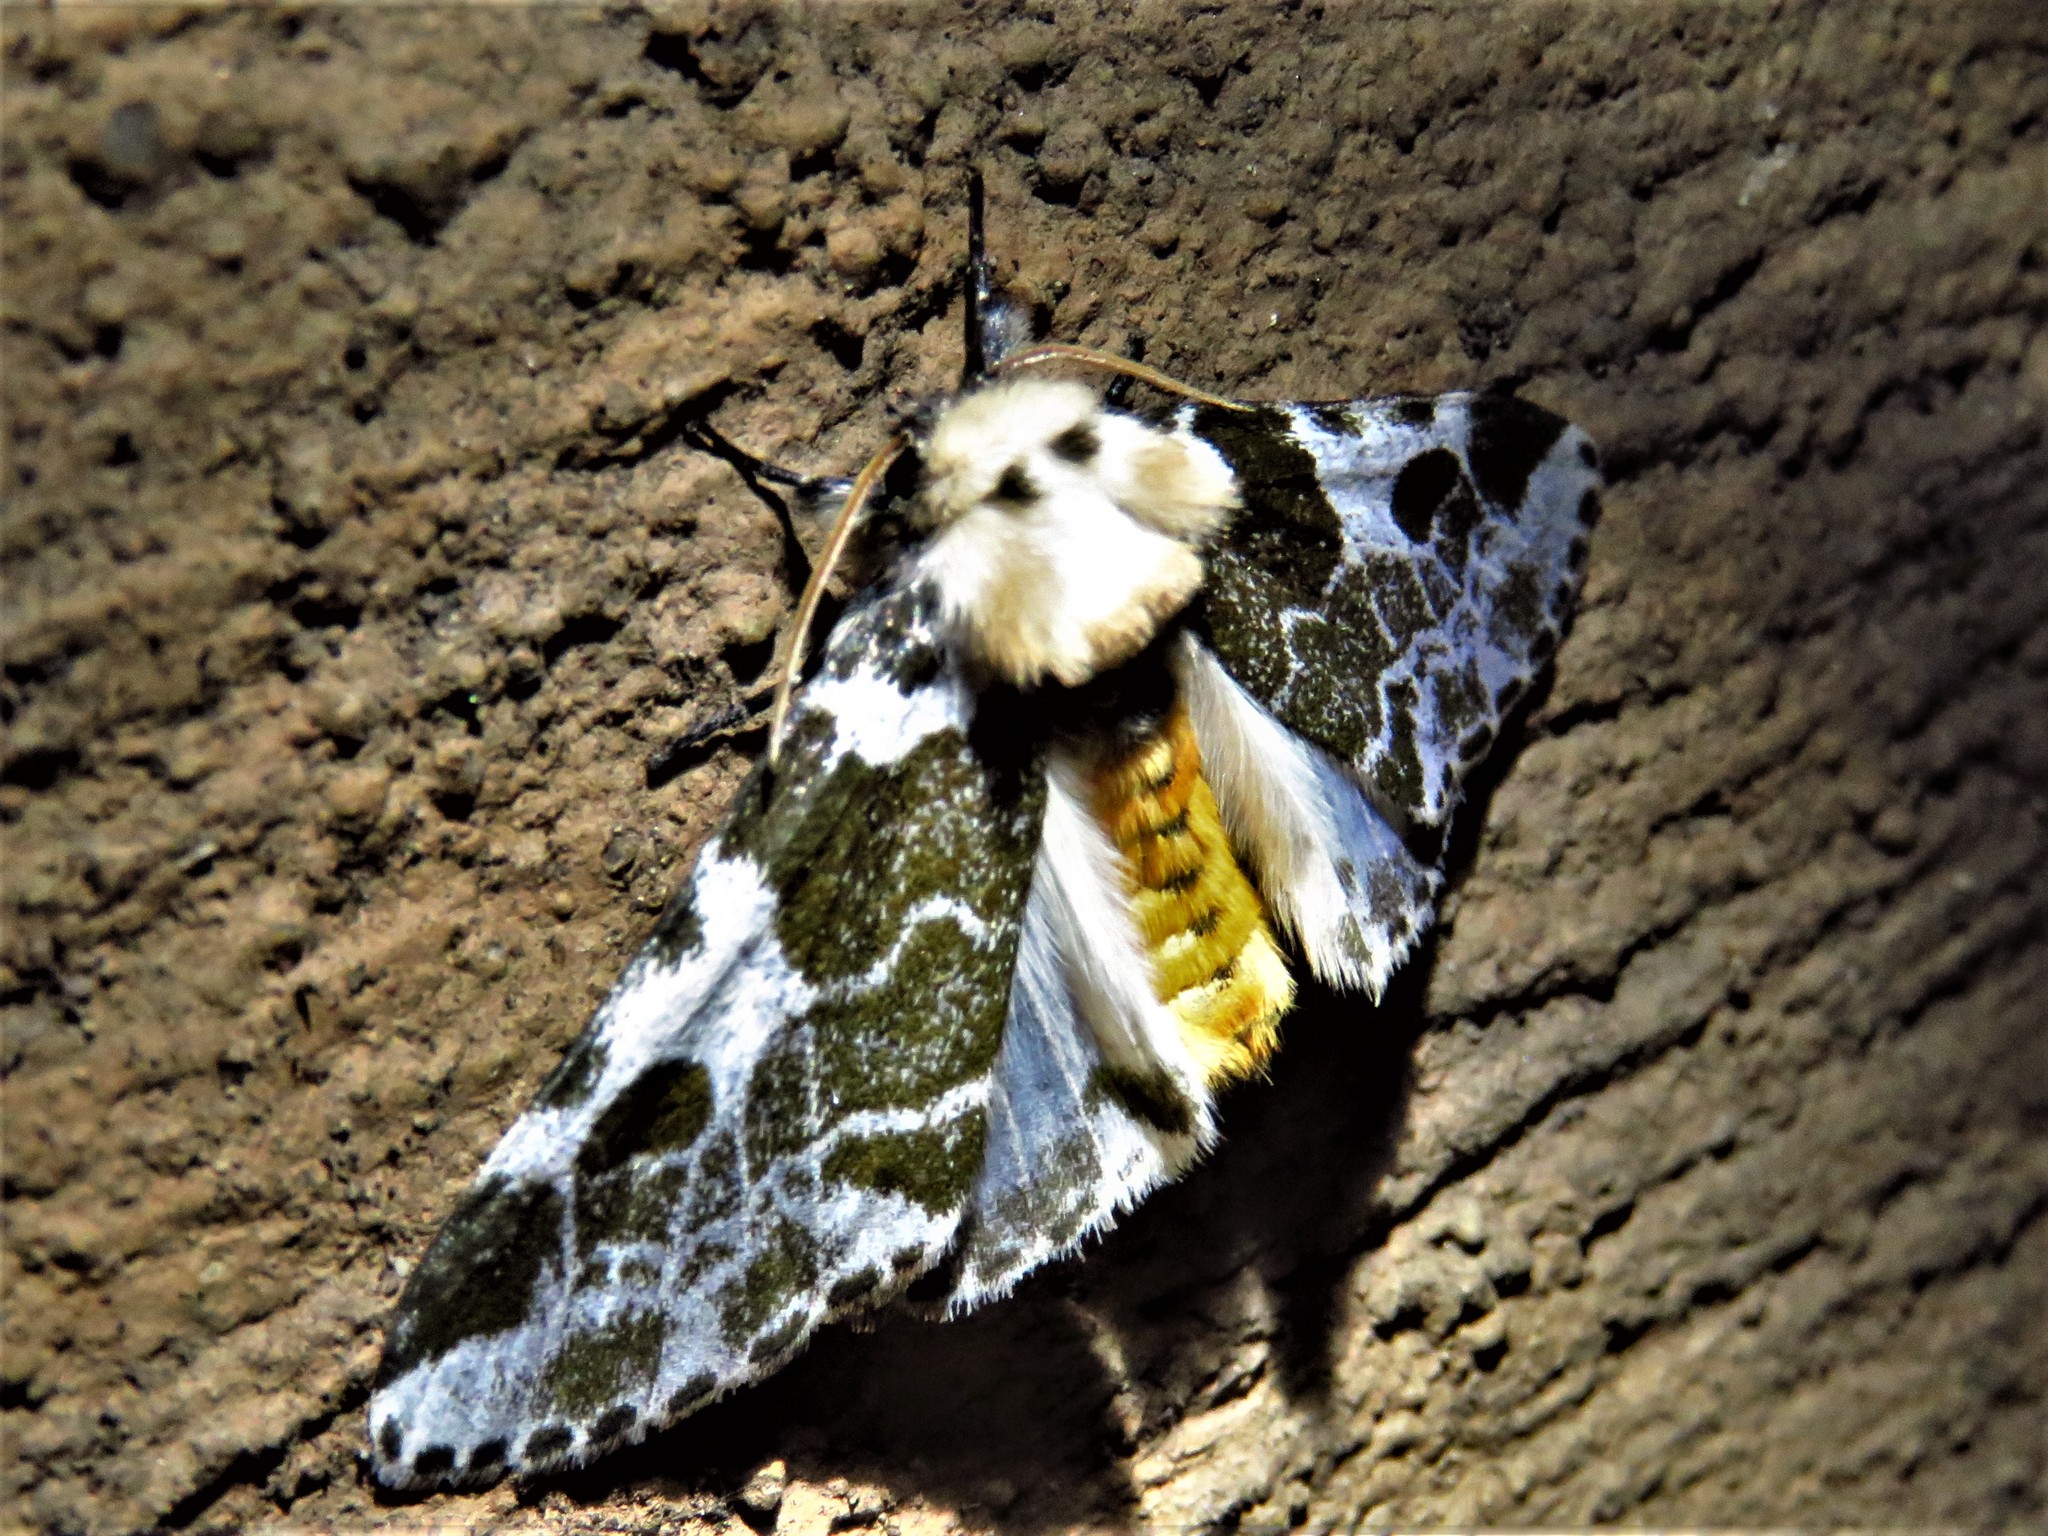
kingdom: Animalia
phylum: Arthropoda
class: Insecta
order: Lepidoptera
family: Erebidae
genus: Sciatta
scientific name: Sciatta inconcisa
